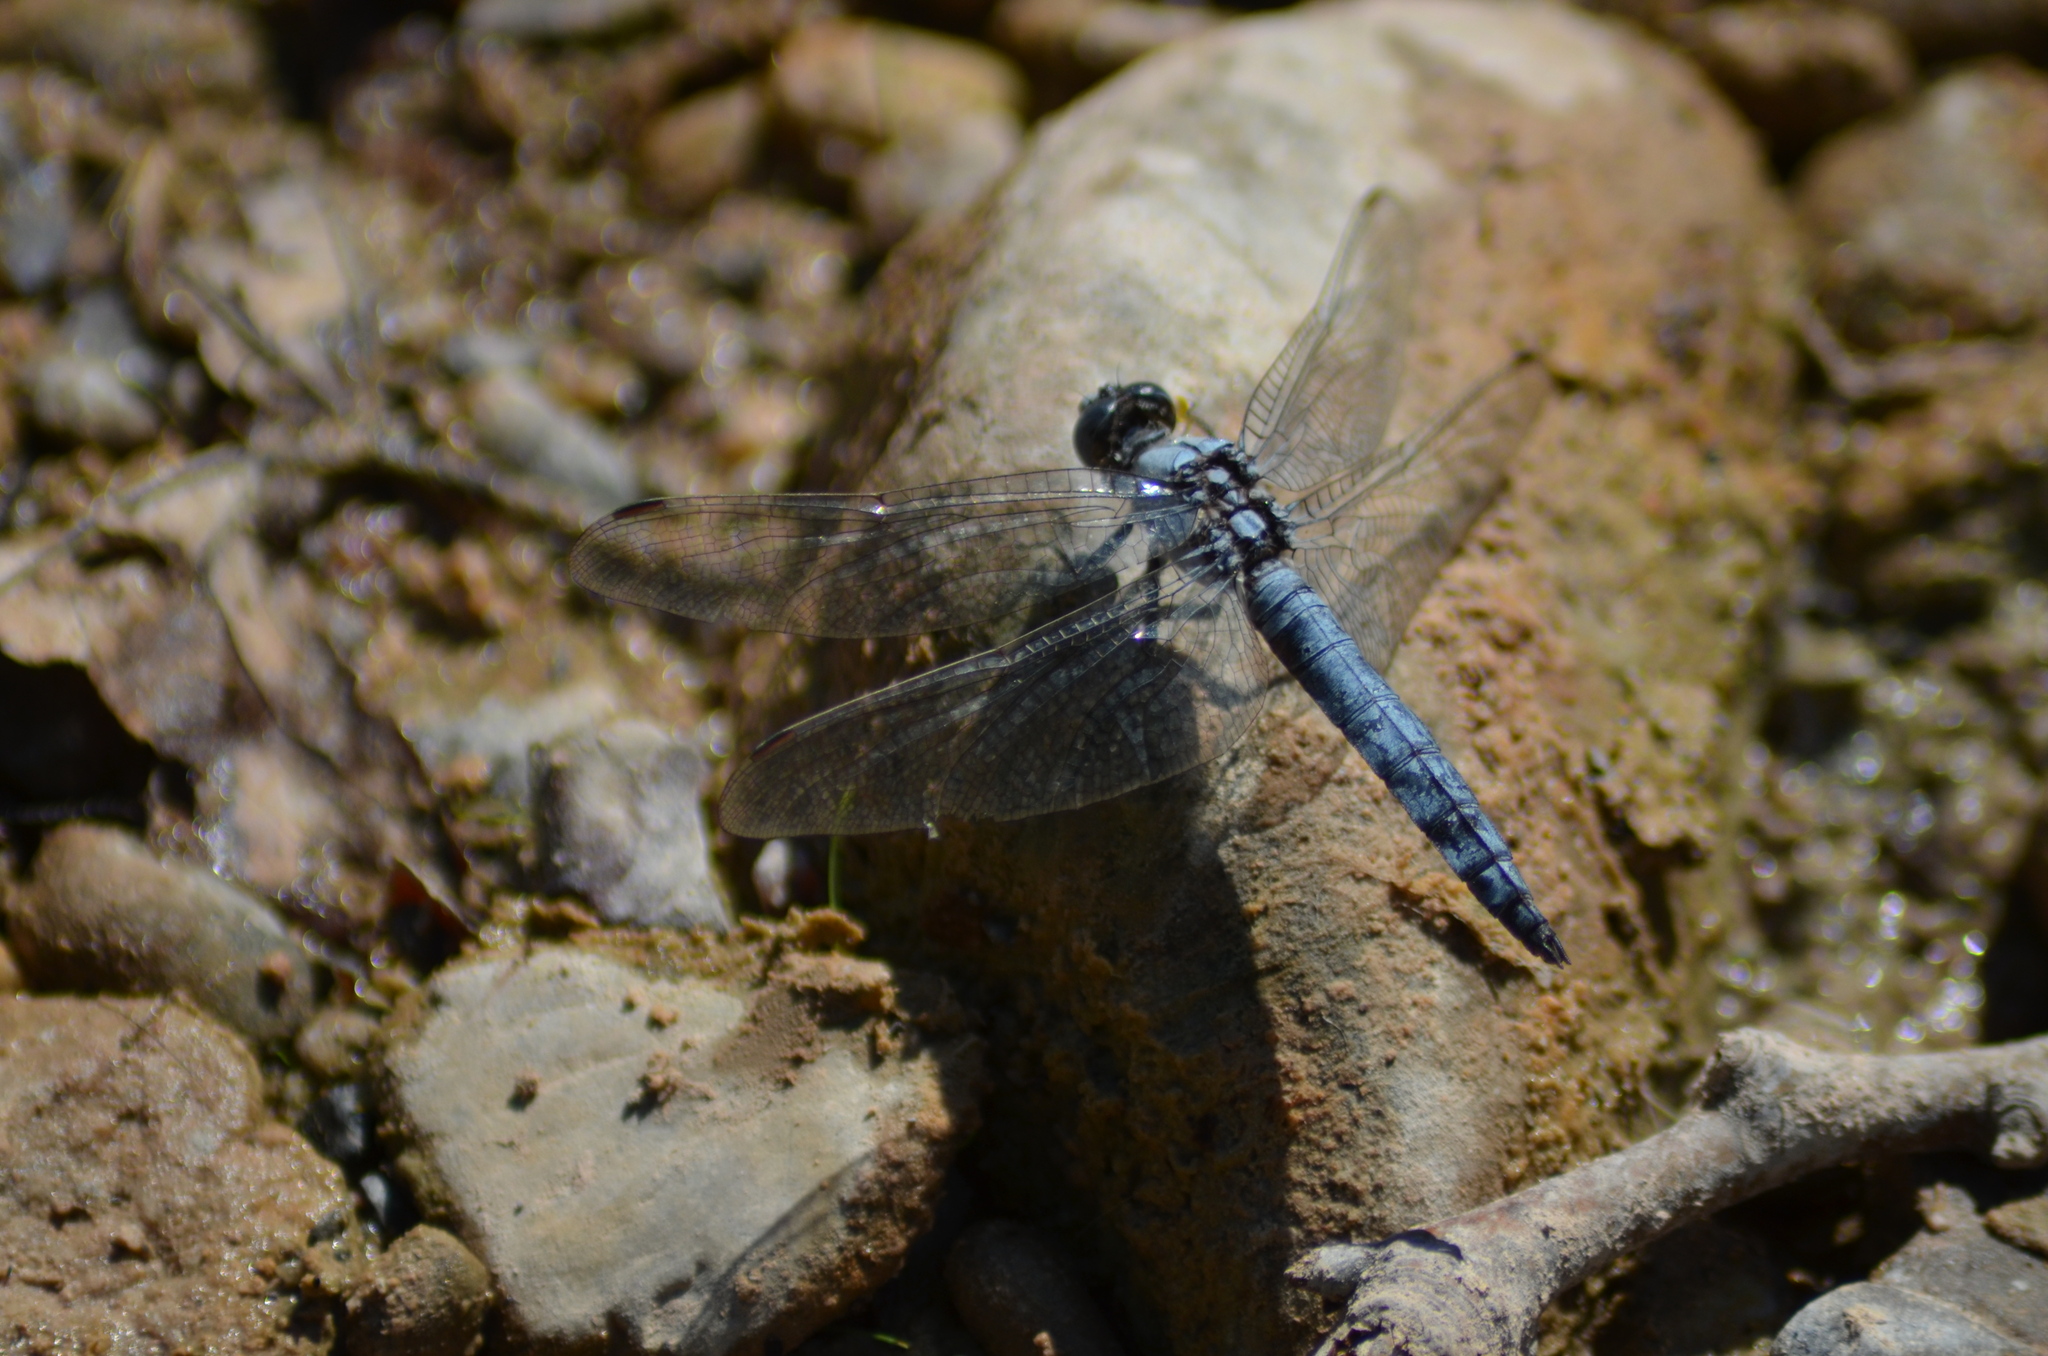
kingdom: Animalia
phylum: Arthropoda
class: Insecta
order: Odonata
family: Libellulidae
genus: Orthetrum
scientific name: Orthetrum brunneum
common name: Southern skimmer
